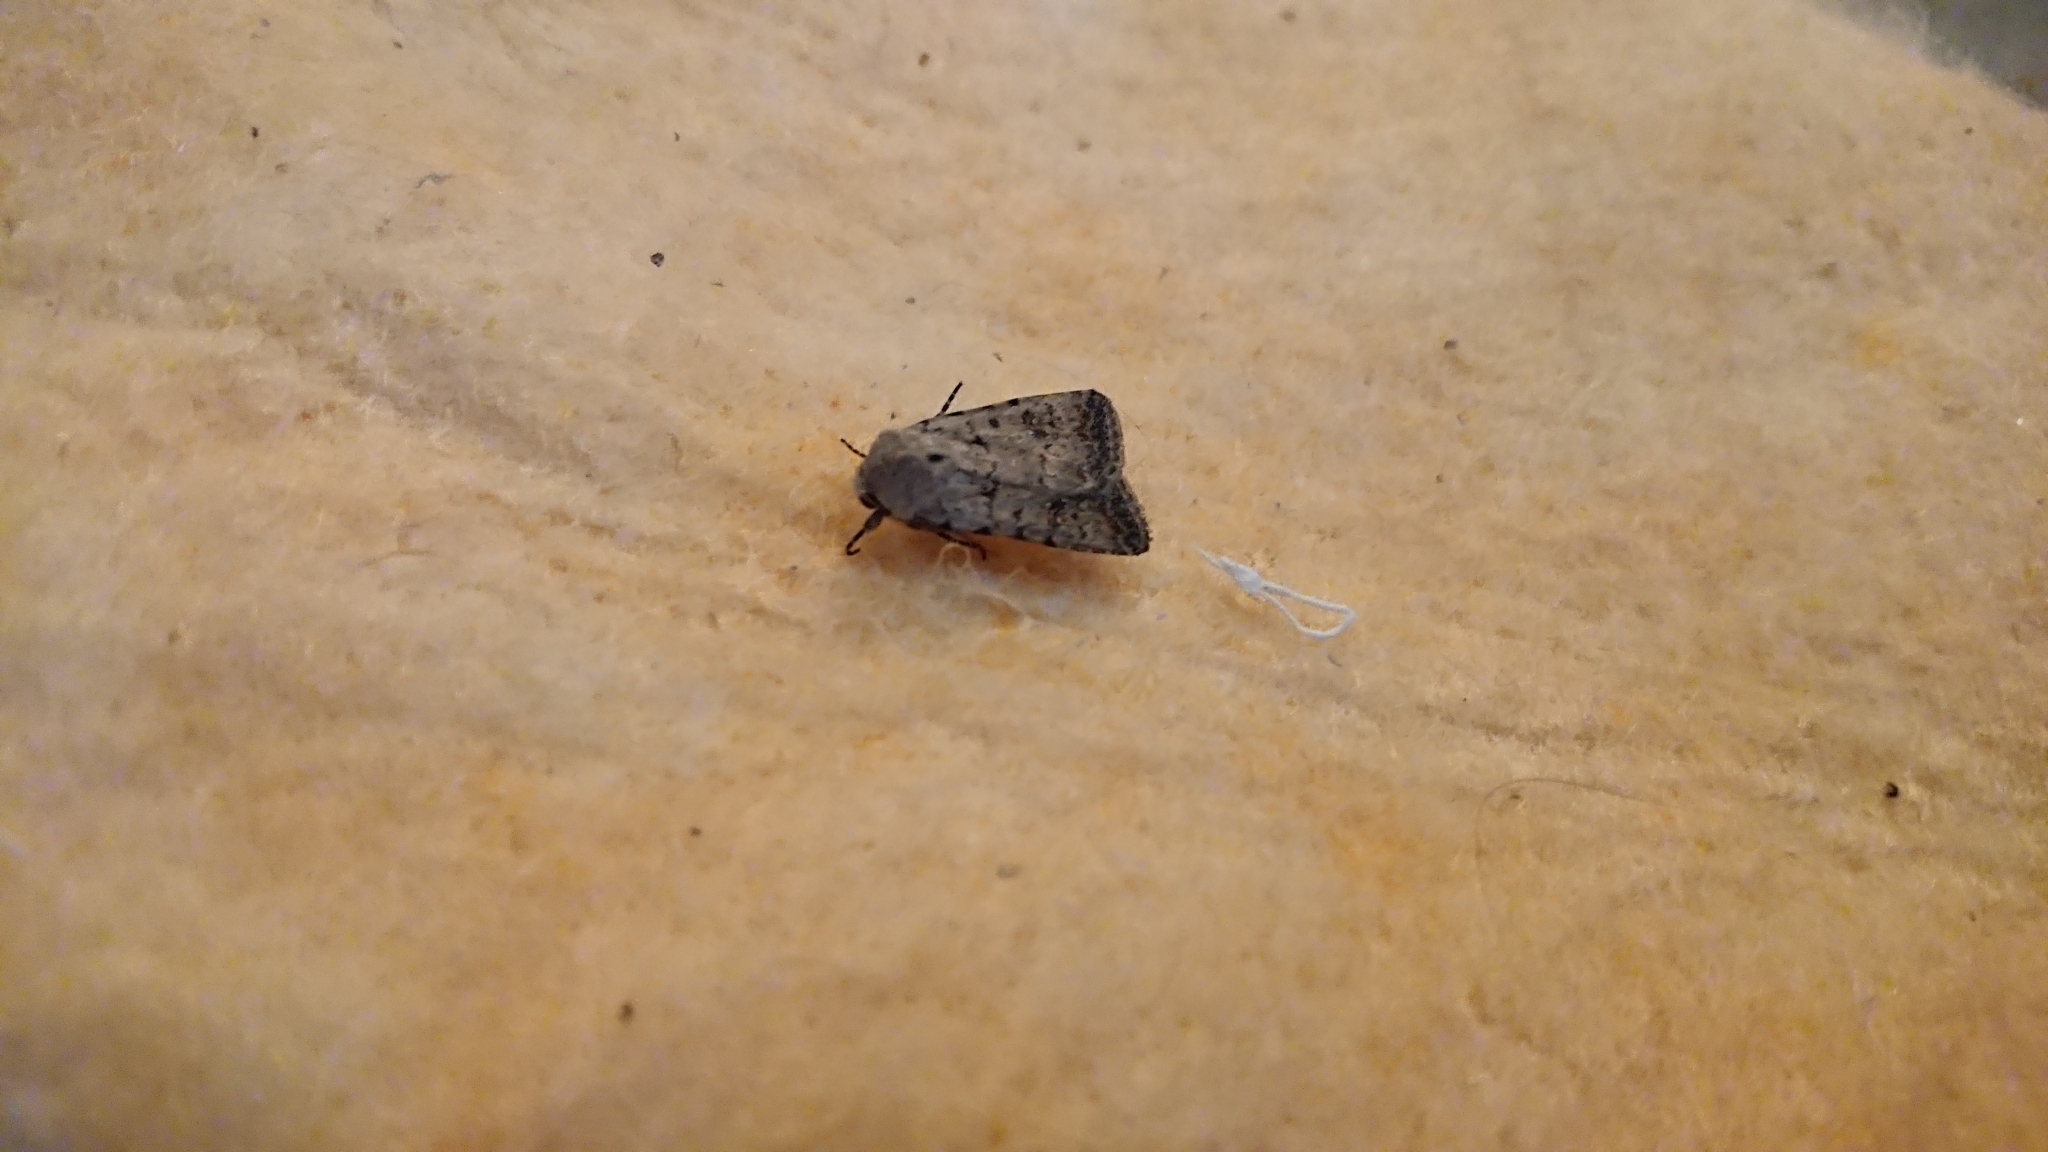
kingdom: Animalia
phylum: Arthropoda
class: Insecta
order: Lepidoptera
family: Noctuidae
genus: Caradrina
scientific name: Caradrina clavipalpis
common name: Pale mottled willow
